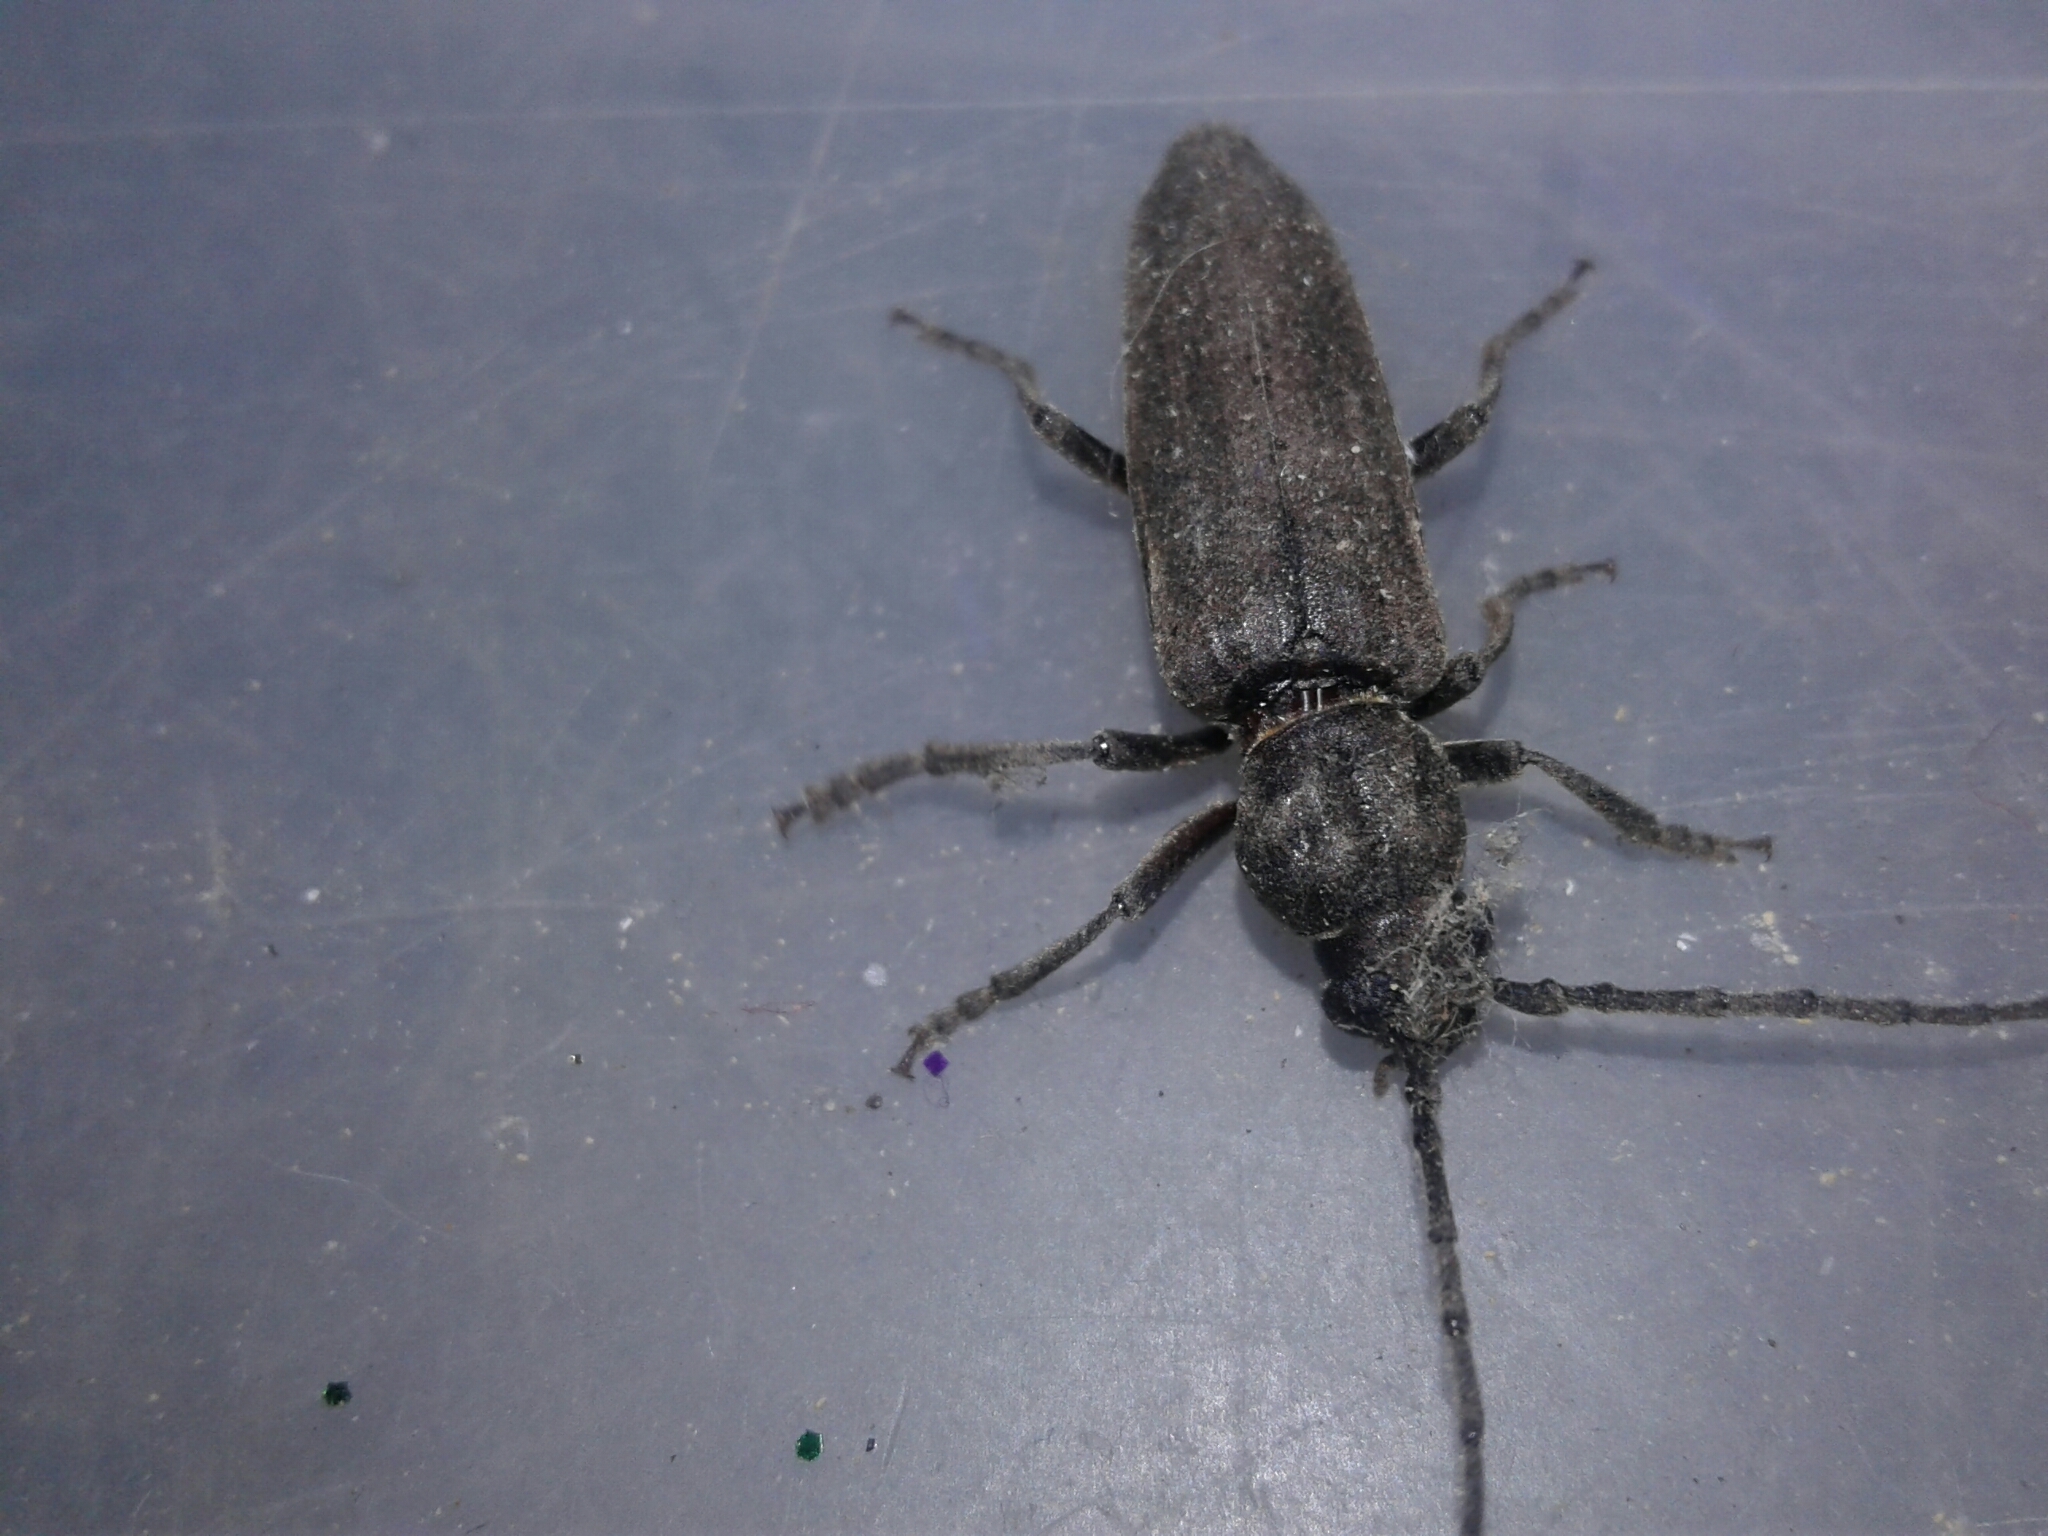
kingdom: Animalia
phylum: Arthropoda
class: Insecta
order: Coleoptera
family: Cerambycidae
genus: Arhopalus
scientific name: Arhopalus ferus
